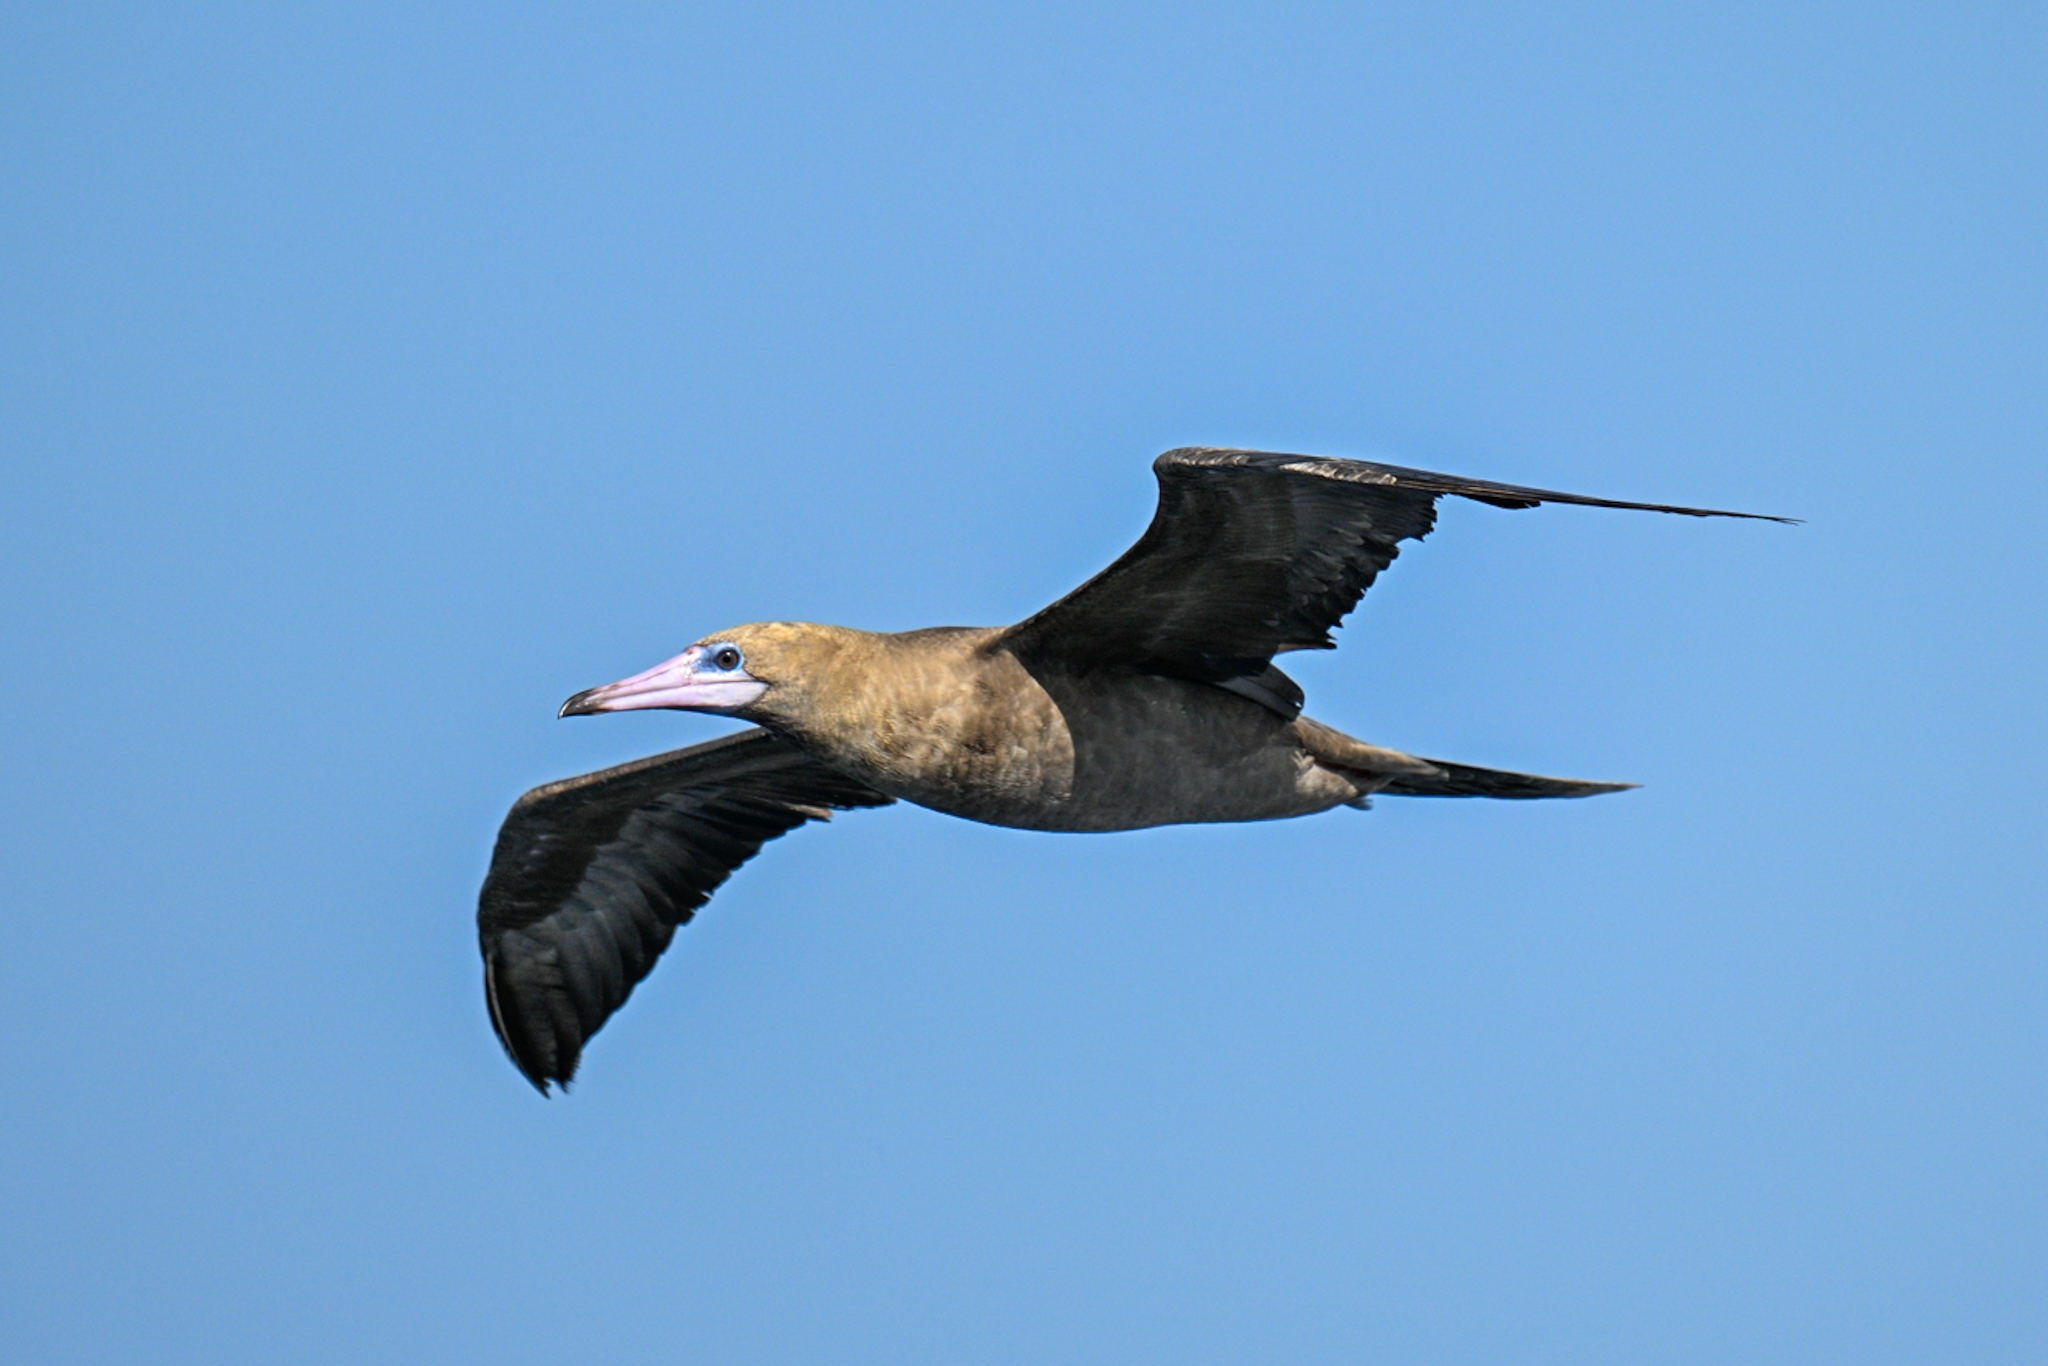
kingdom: Animalia
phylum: Chordata
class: Aves
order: Suliformes
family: Sulidae
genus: Sula
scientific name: Sula sula
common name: Red-footed booby
